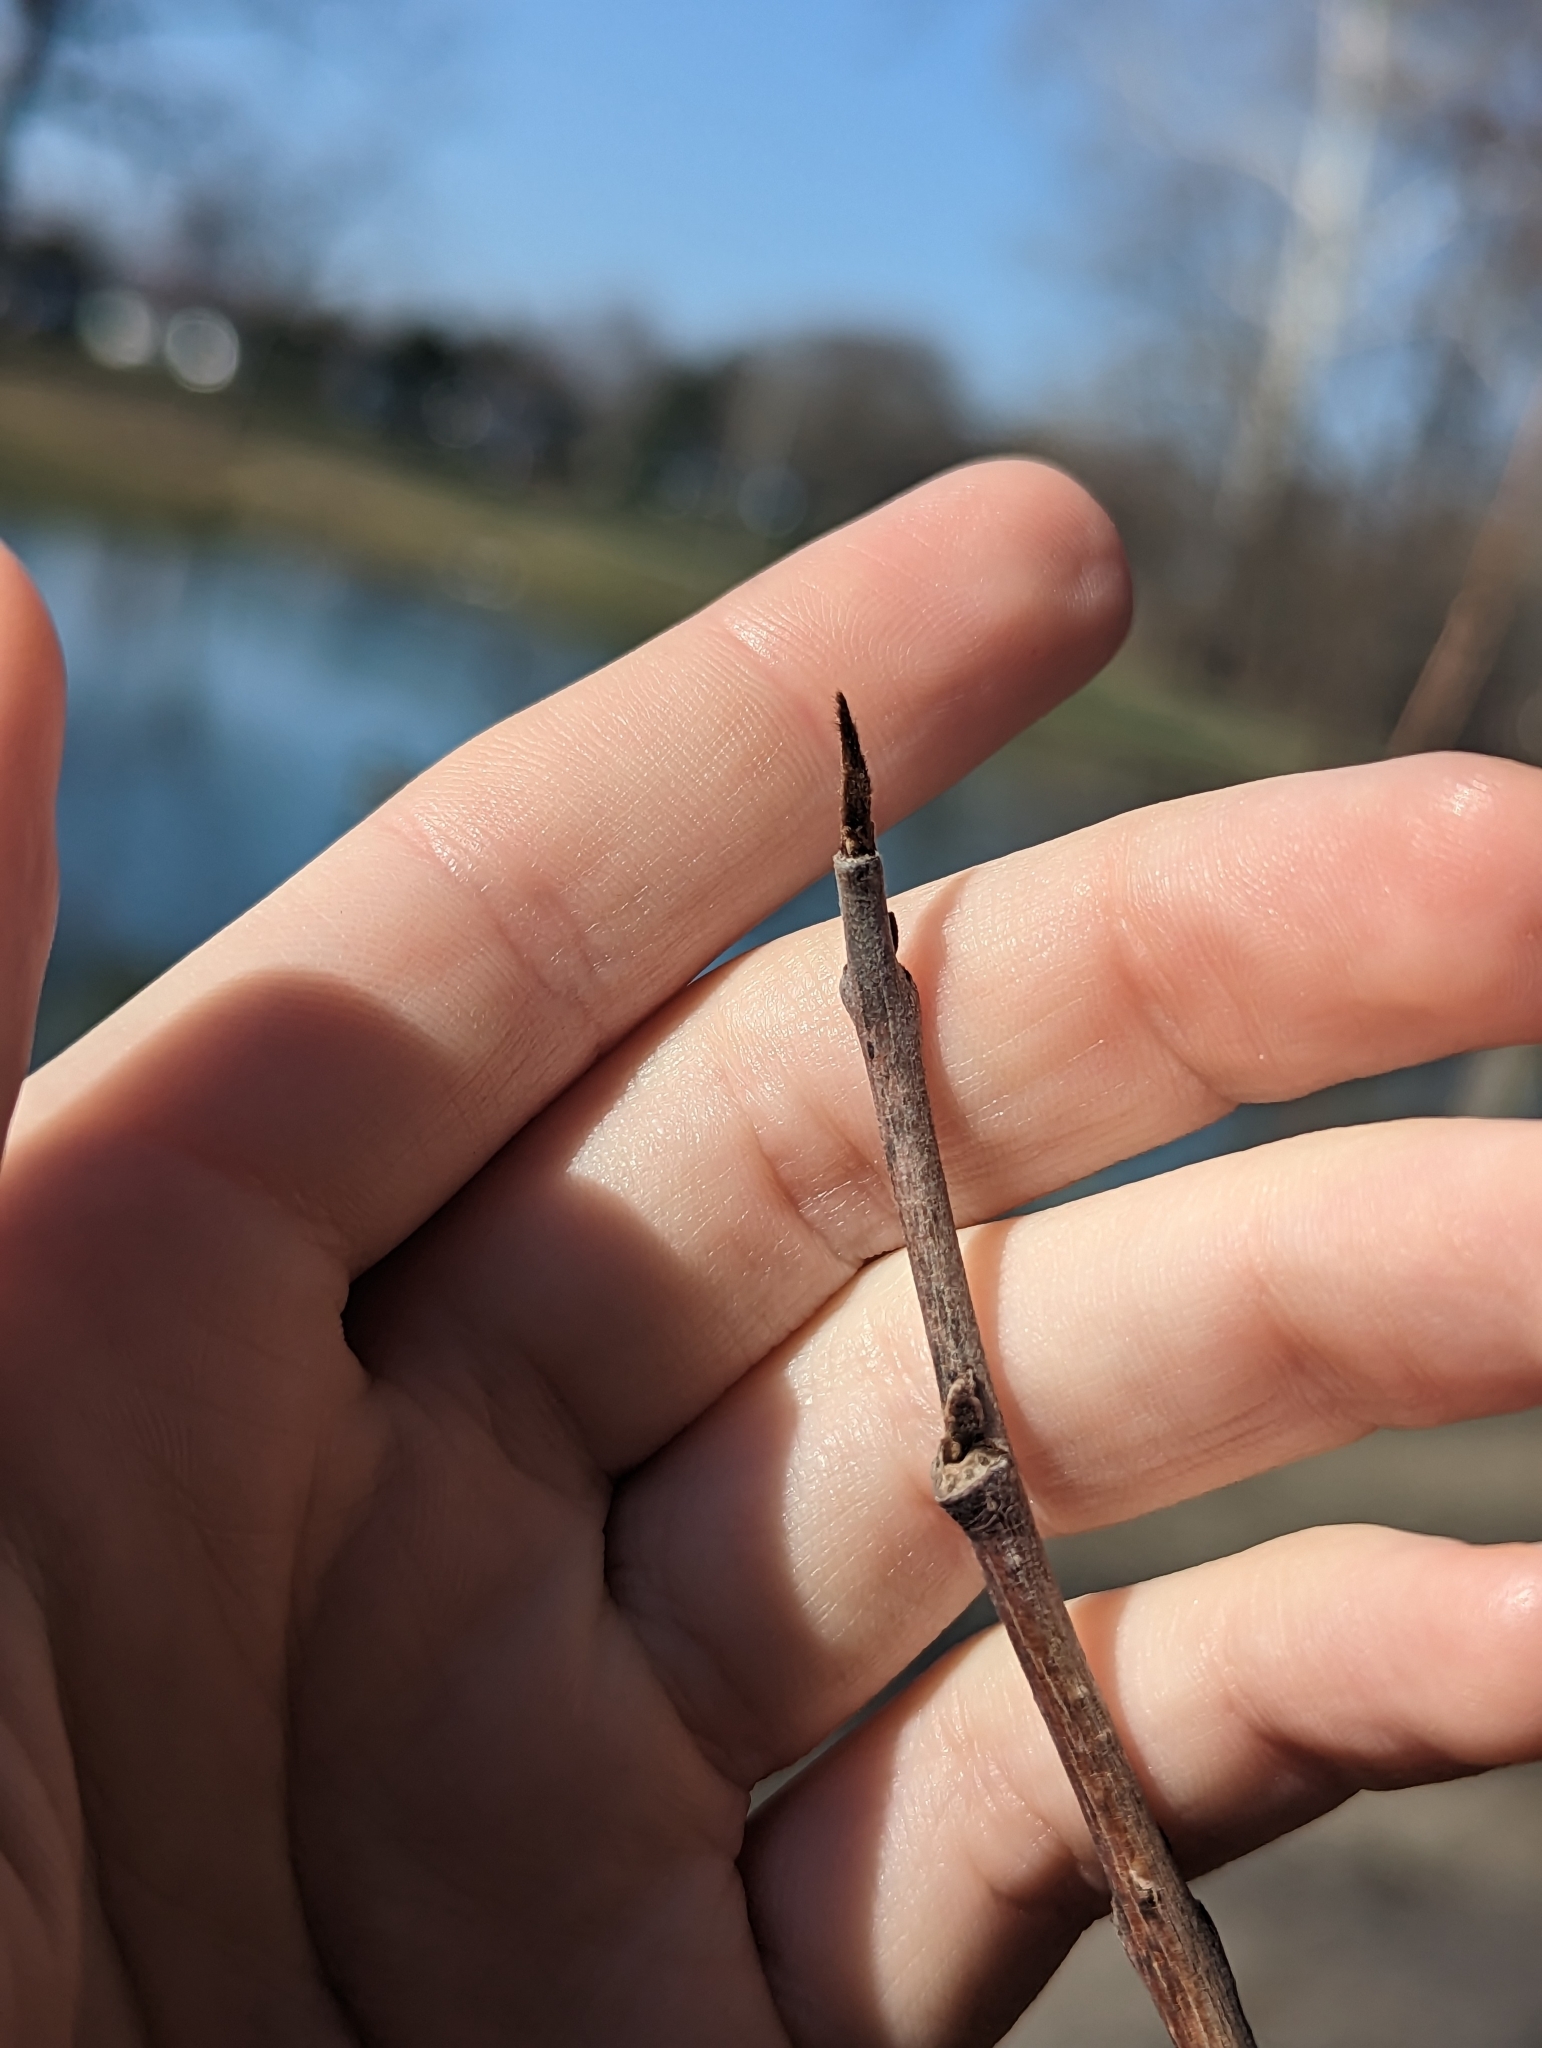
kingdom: Plantae
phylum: Tracheophyta
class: Magnoliopsida
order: Magnoliales
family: Annonaceae
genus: Asimina
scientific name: Asimina triloba
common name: Dog-banana
